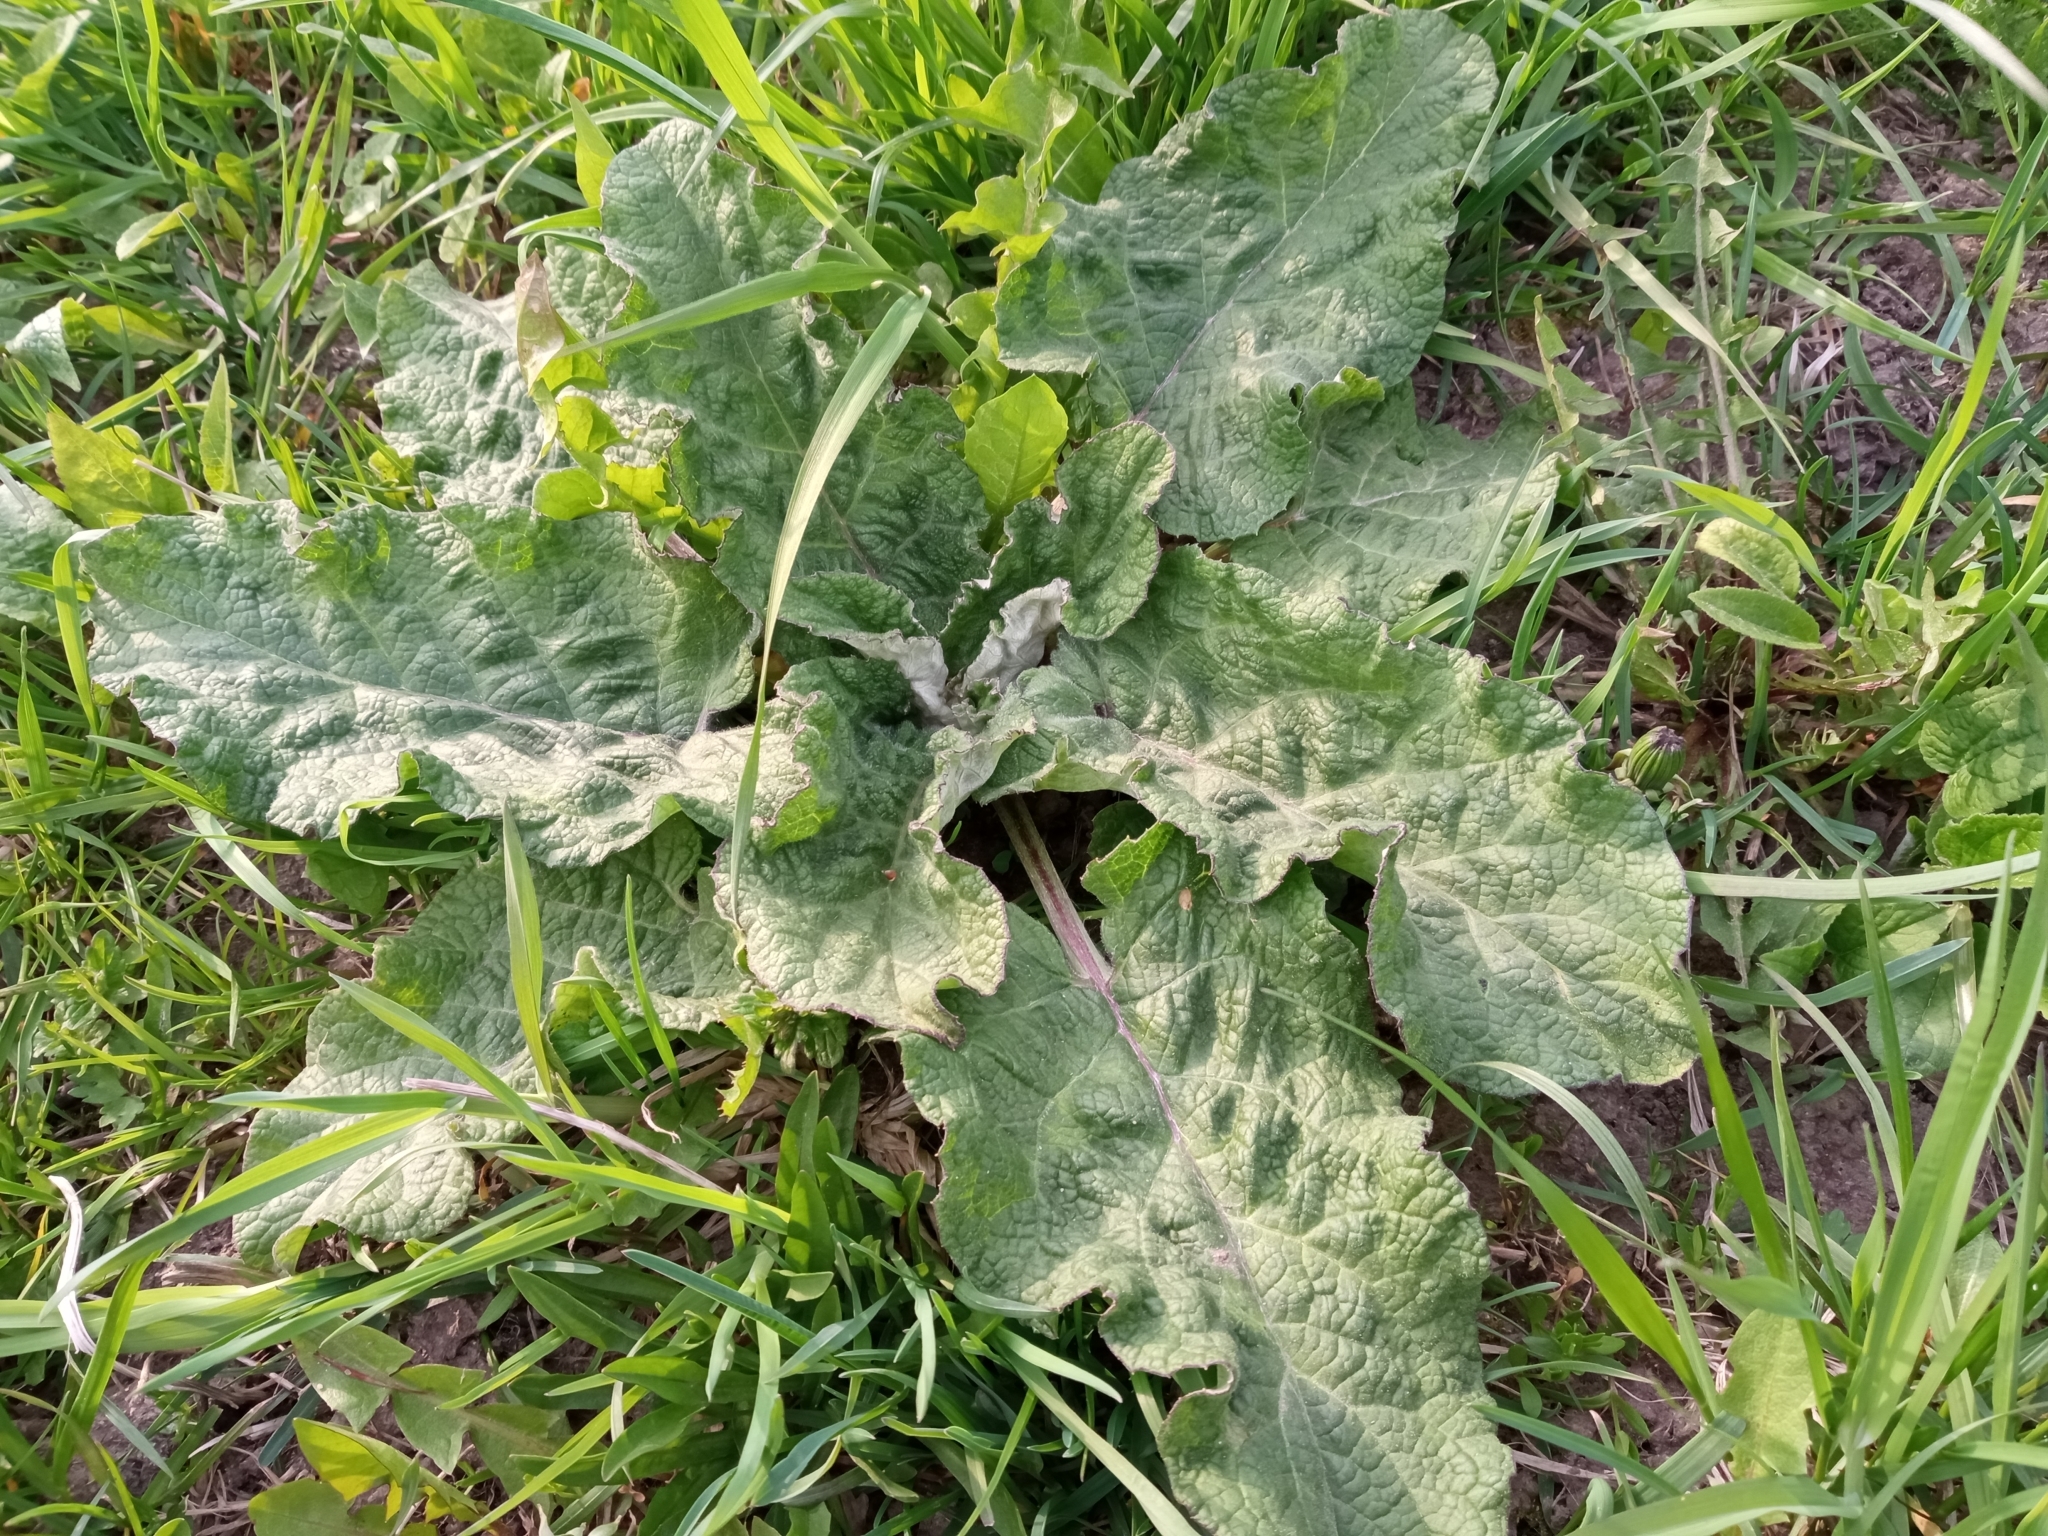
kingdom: Plantae
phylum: Tracheophyta
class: Magnoliopsida
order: Asterales
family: Asteraceae
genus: Arctium
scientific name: Arctium tomentosum
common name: Woolly burdock
